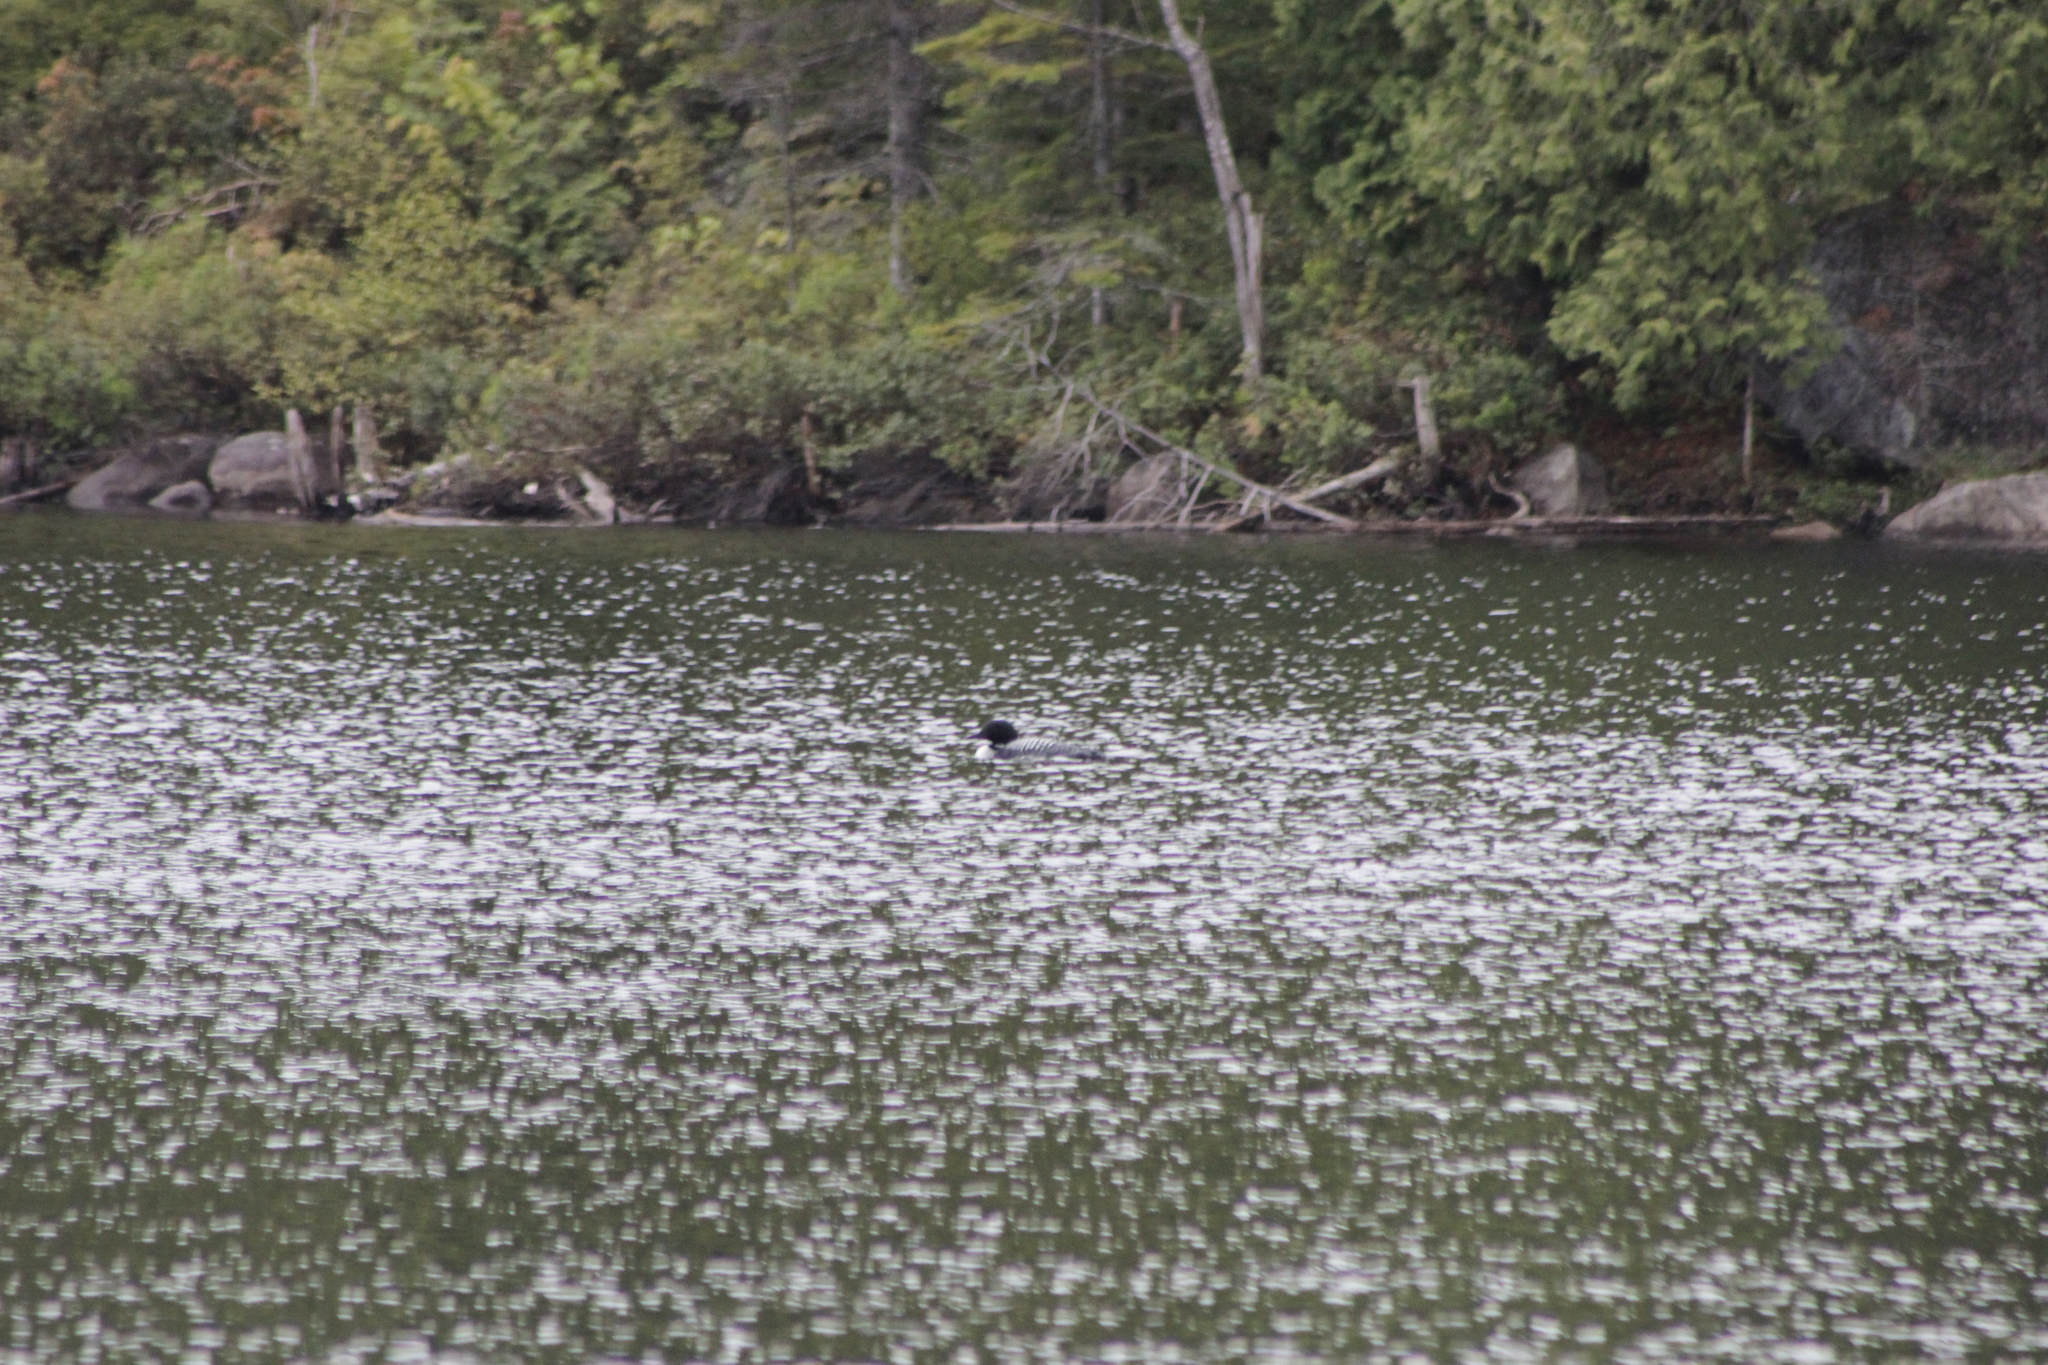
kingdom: Animalia
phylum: Chordata
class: Aves
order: Gaviiformes
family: Gaviidae
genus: Gavia
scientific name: Gavia immer
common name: Common loon
